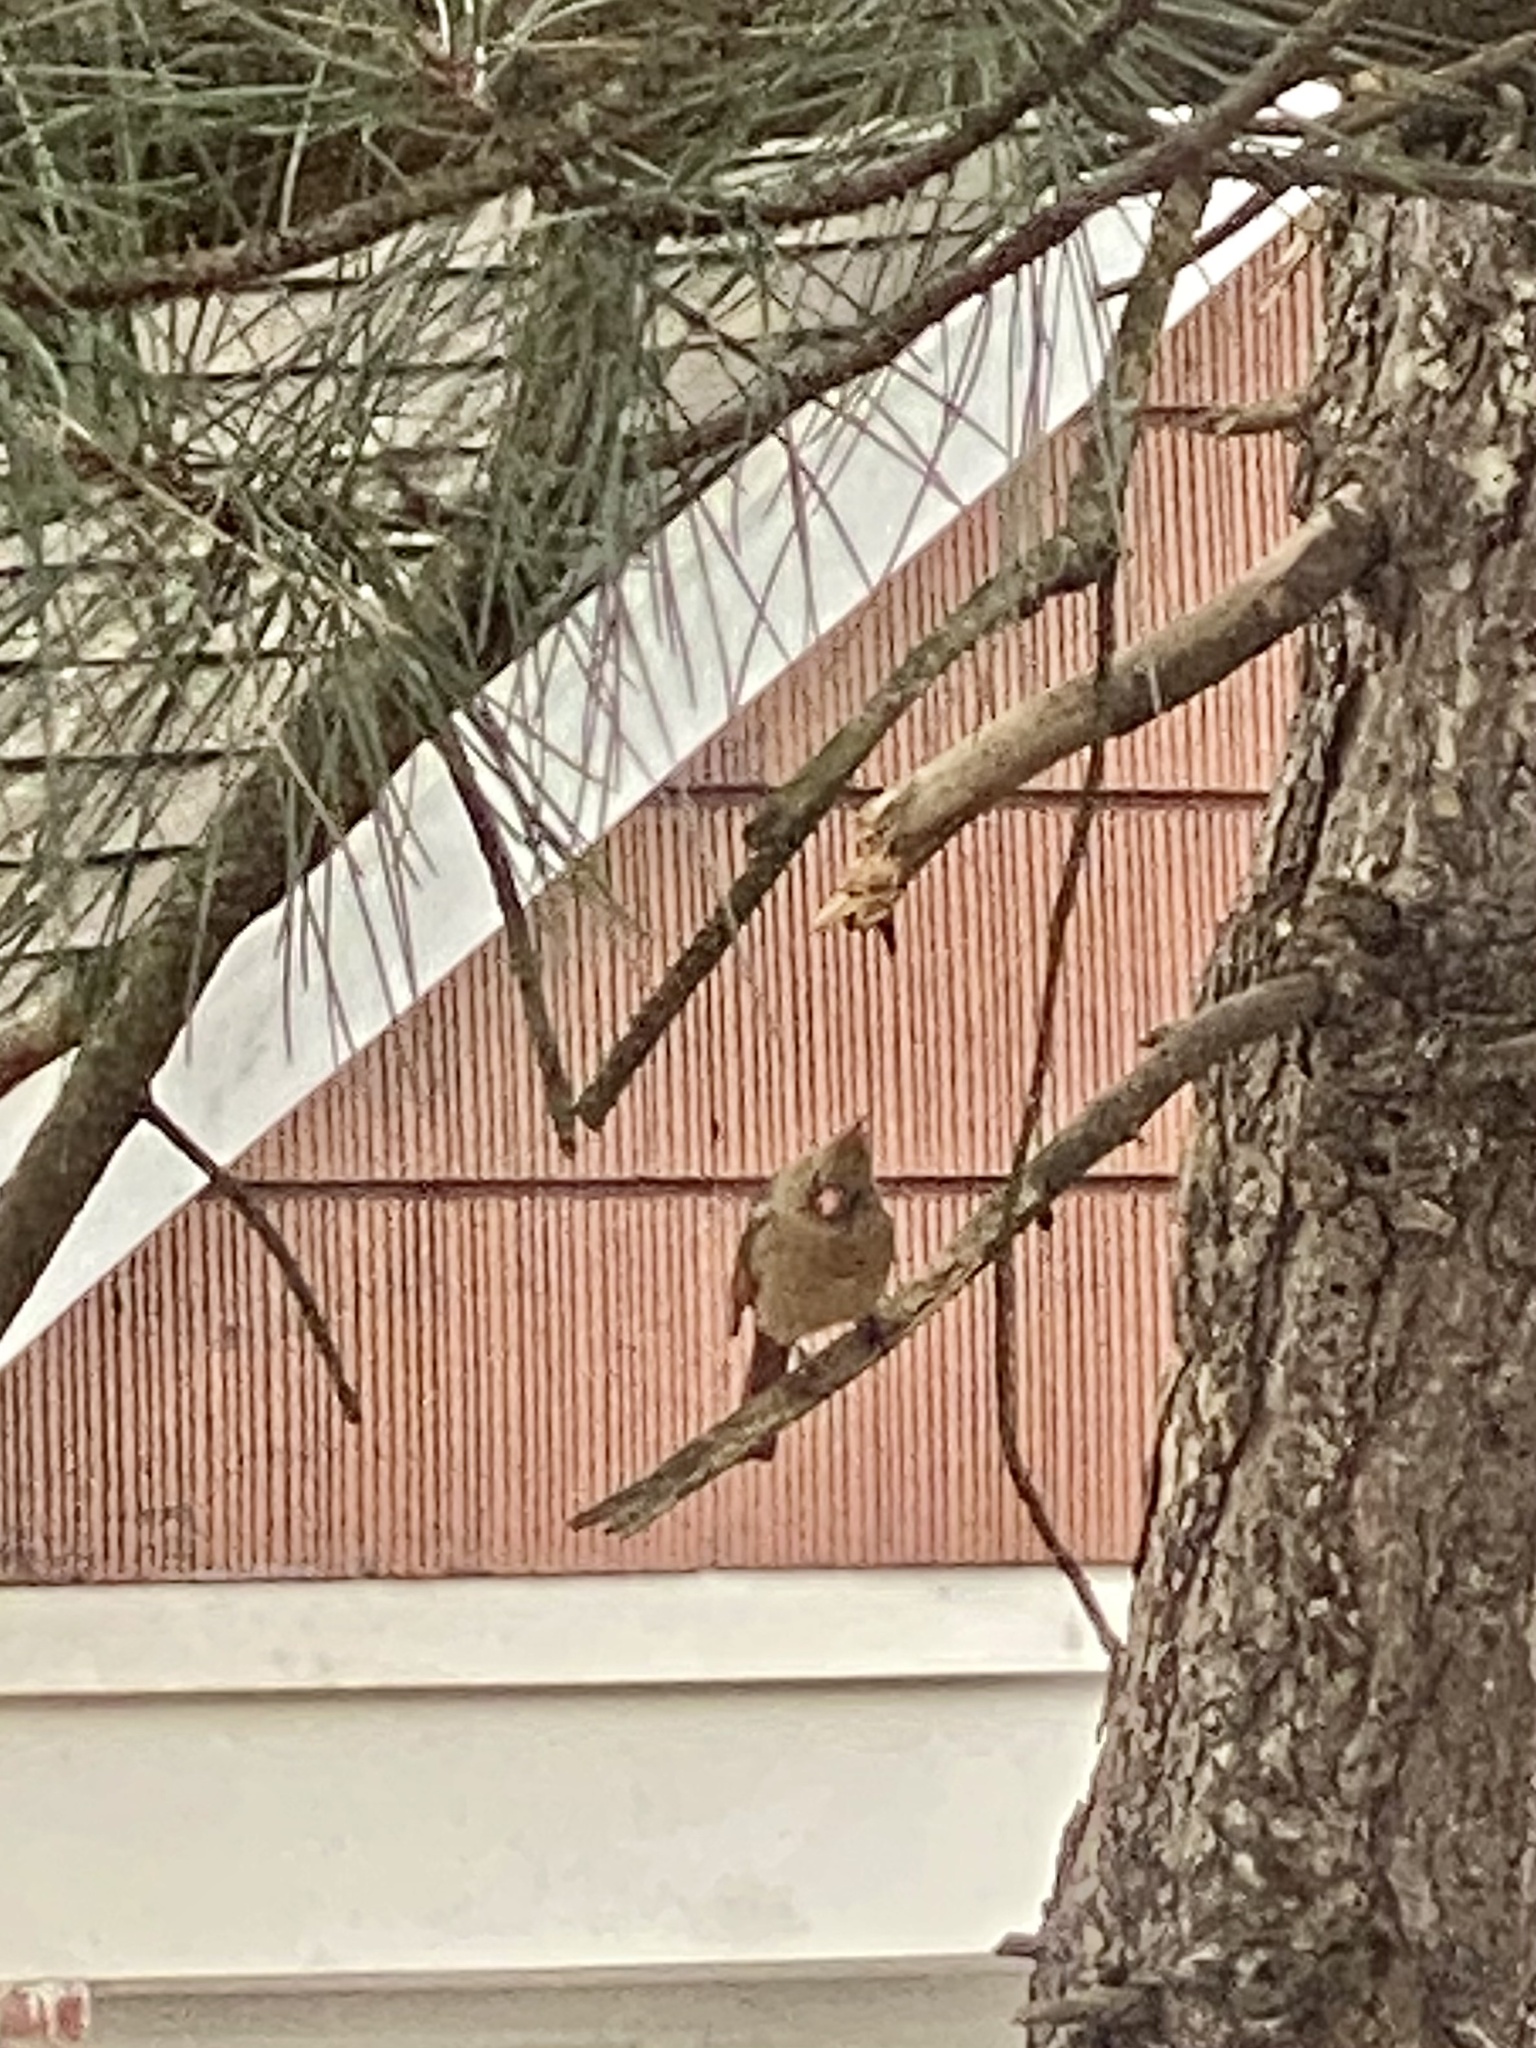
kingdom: Animalia
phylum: Chordata
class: Aves
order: Passeriformes
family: Cardinalidae
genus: Cardinalis
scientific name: Cardinalis cardinalis
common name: Northern cardinal
